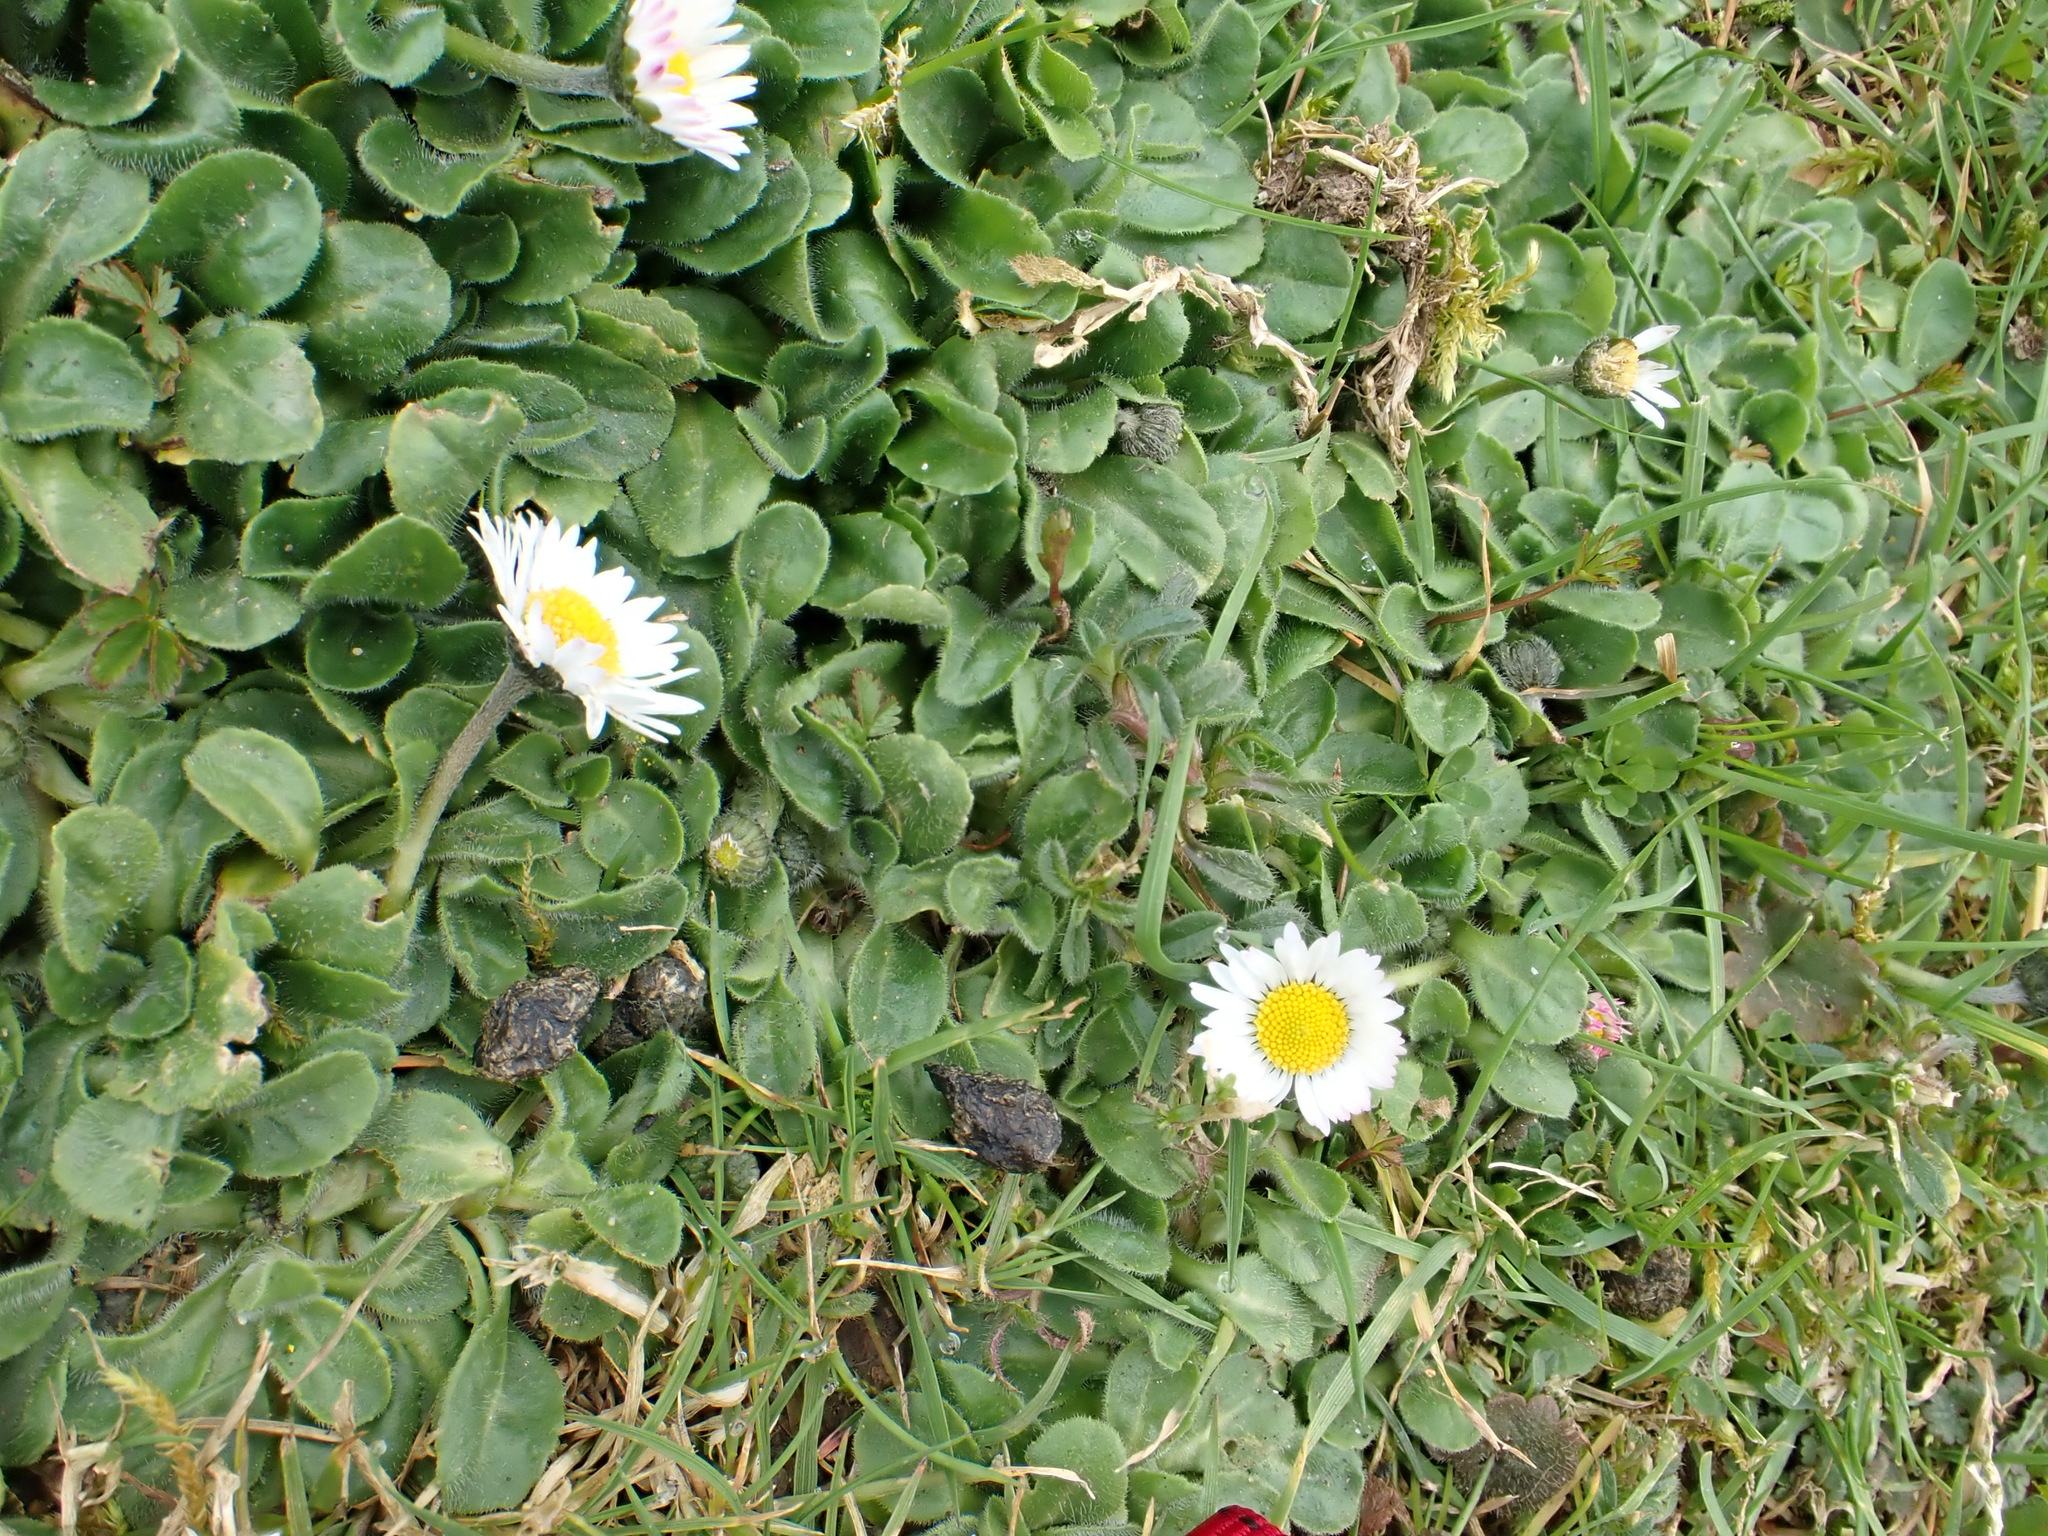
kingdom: Plantae
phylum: Tracheophyta
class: Magnoliopsida
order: Asterales
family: Asteraceae
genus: Bellis
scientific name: Bellis perennis
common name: Lawndaisy
